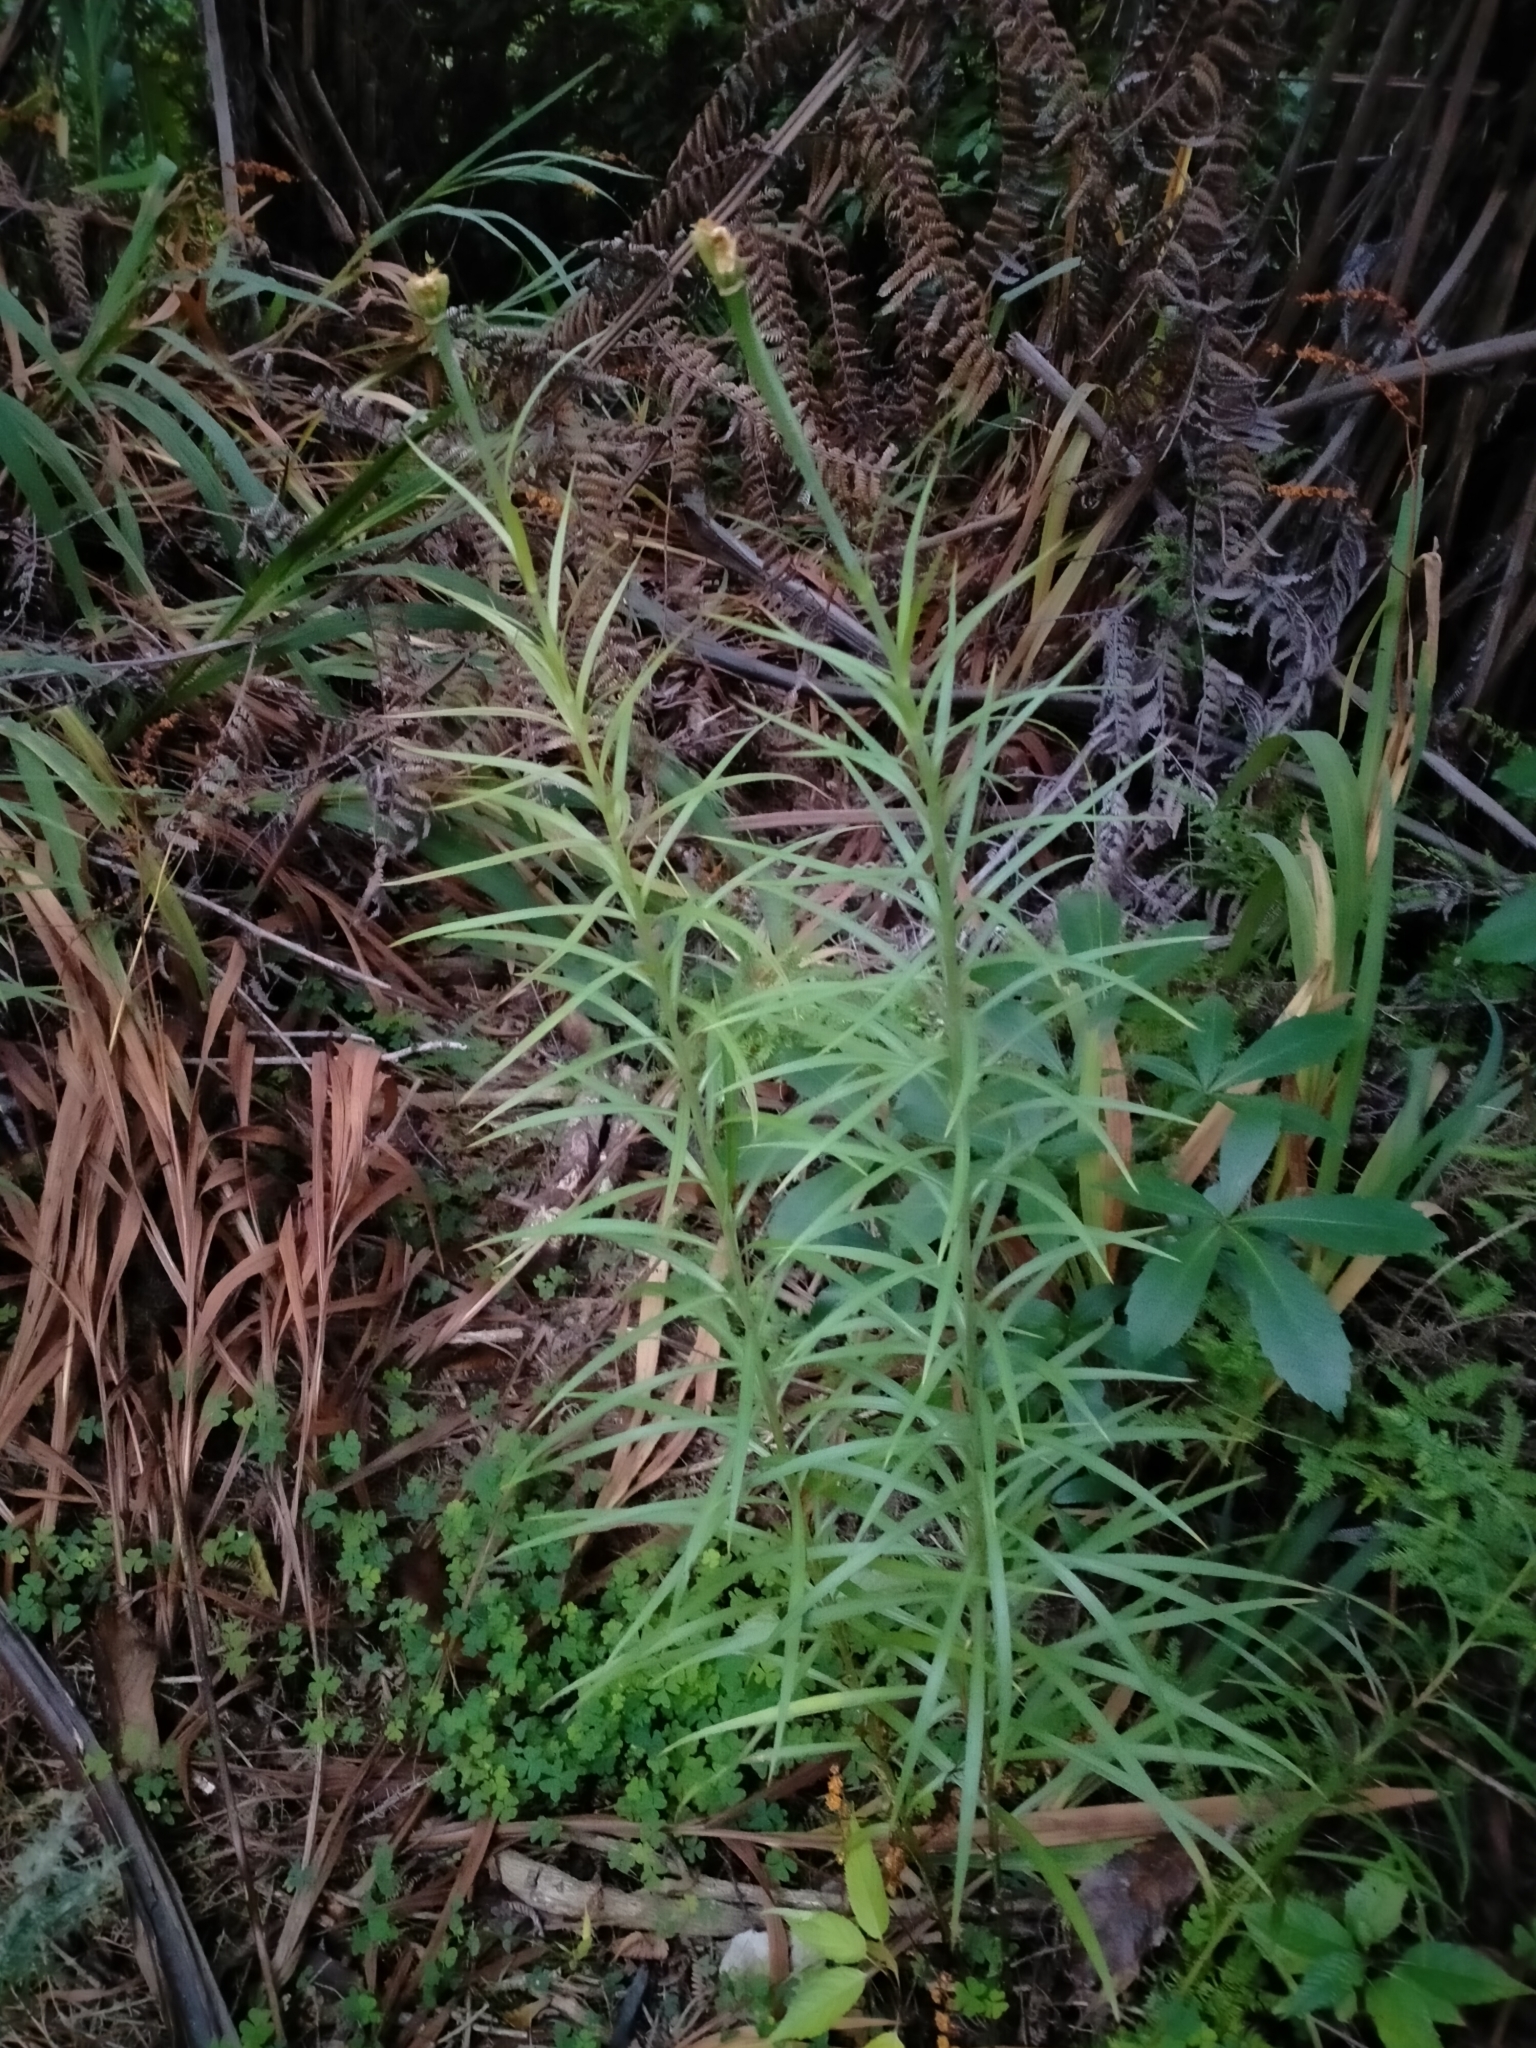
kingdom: Plantae
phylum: Tracheophyta
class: Liliopsida
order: Liliales
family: Liliaceae
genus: Lilium
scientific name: Lilium formosanum
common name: Formosa lily
